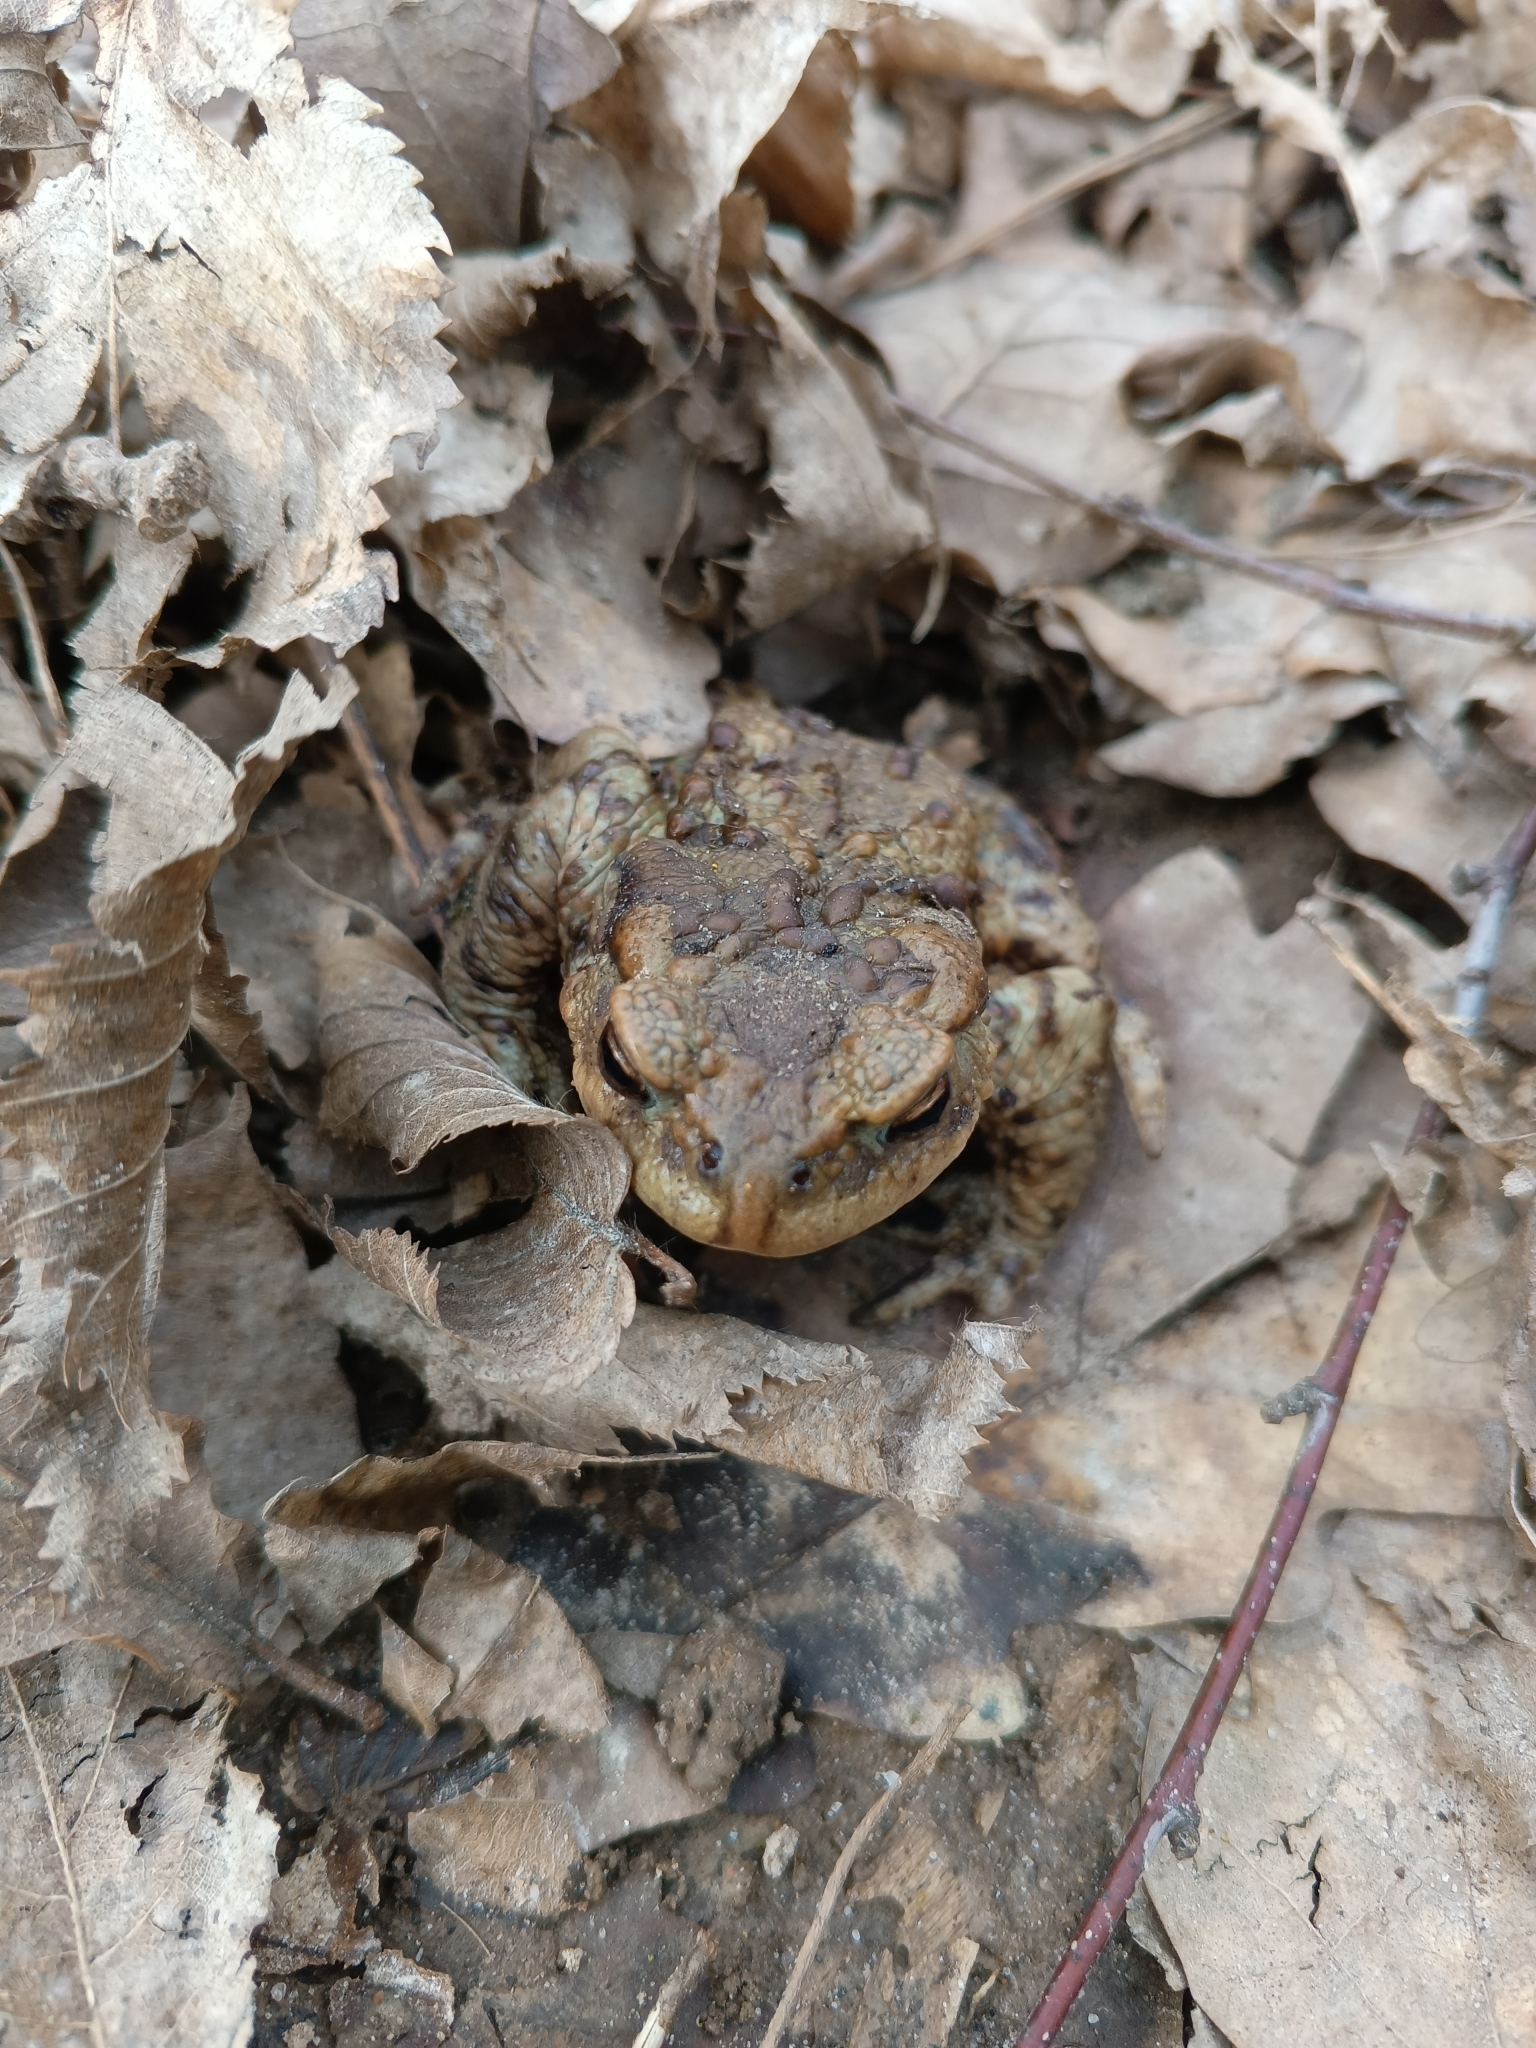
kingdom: Animalia
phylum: Chordata
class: Amphibia
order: Anura
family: Bufonidae
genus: Bufo
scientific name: Bufo bufo
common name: Common toad
